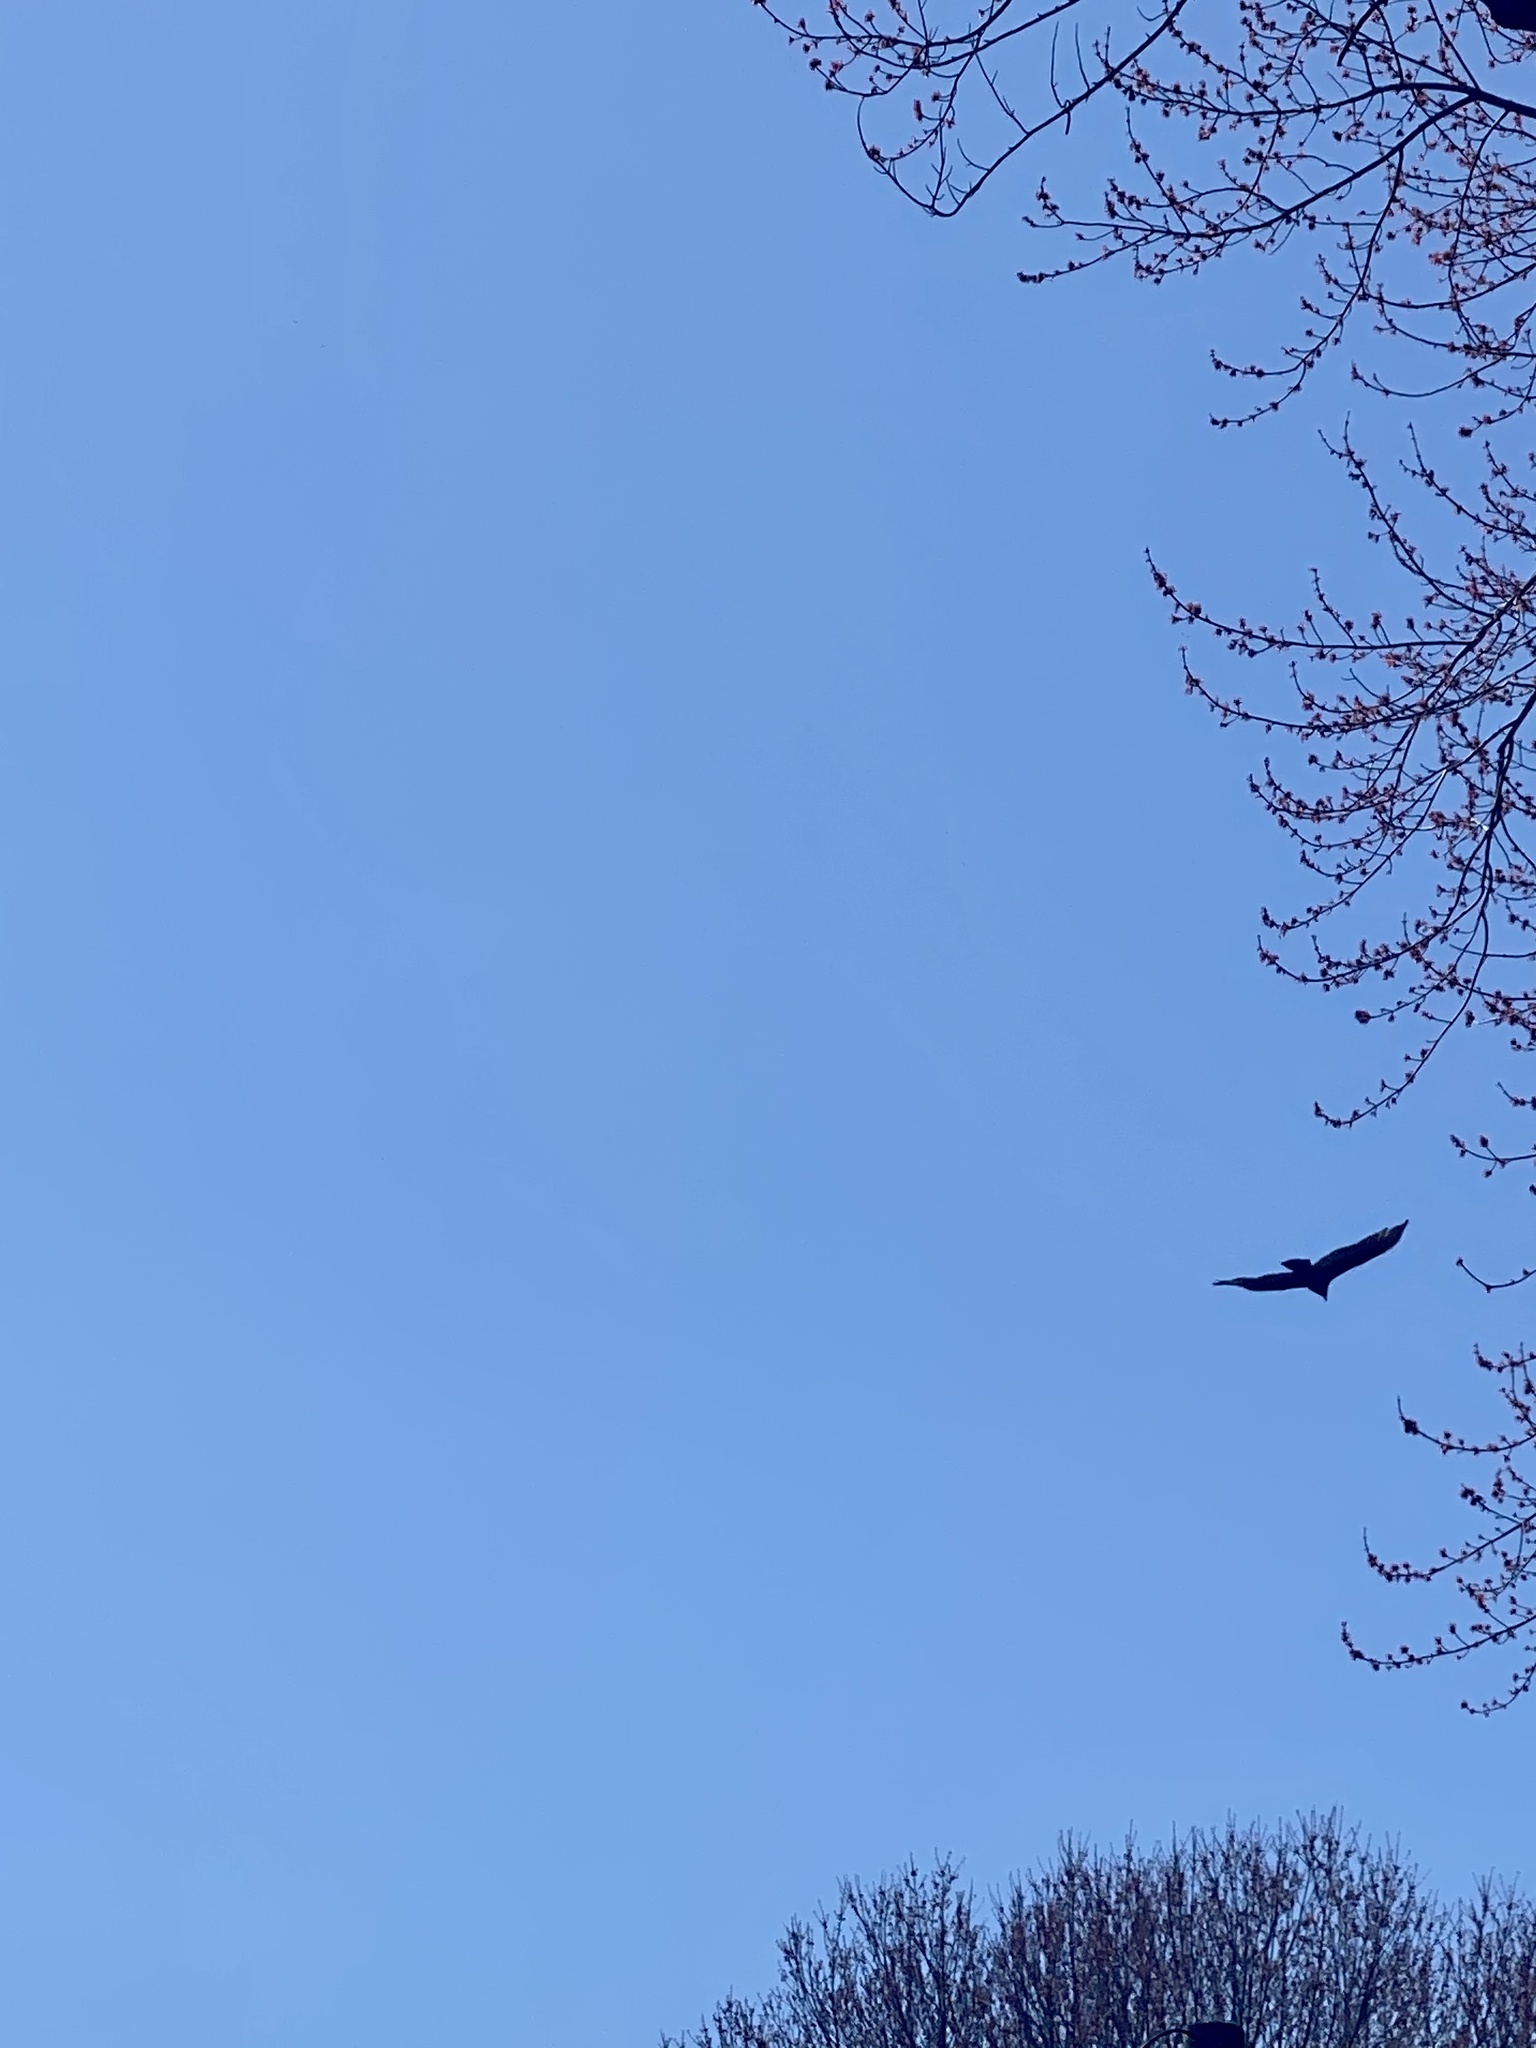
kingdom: Animalia
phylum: Chordata
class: Aves
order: Accipitriformes
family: Cathartidae
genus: Cathartes
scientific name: Cathartes aura
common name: Turkey vulture
